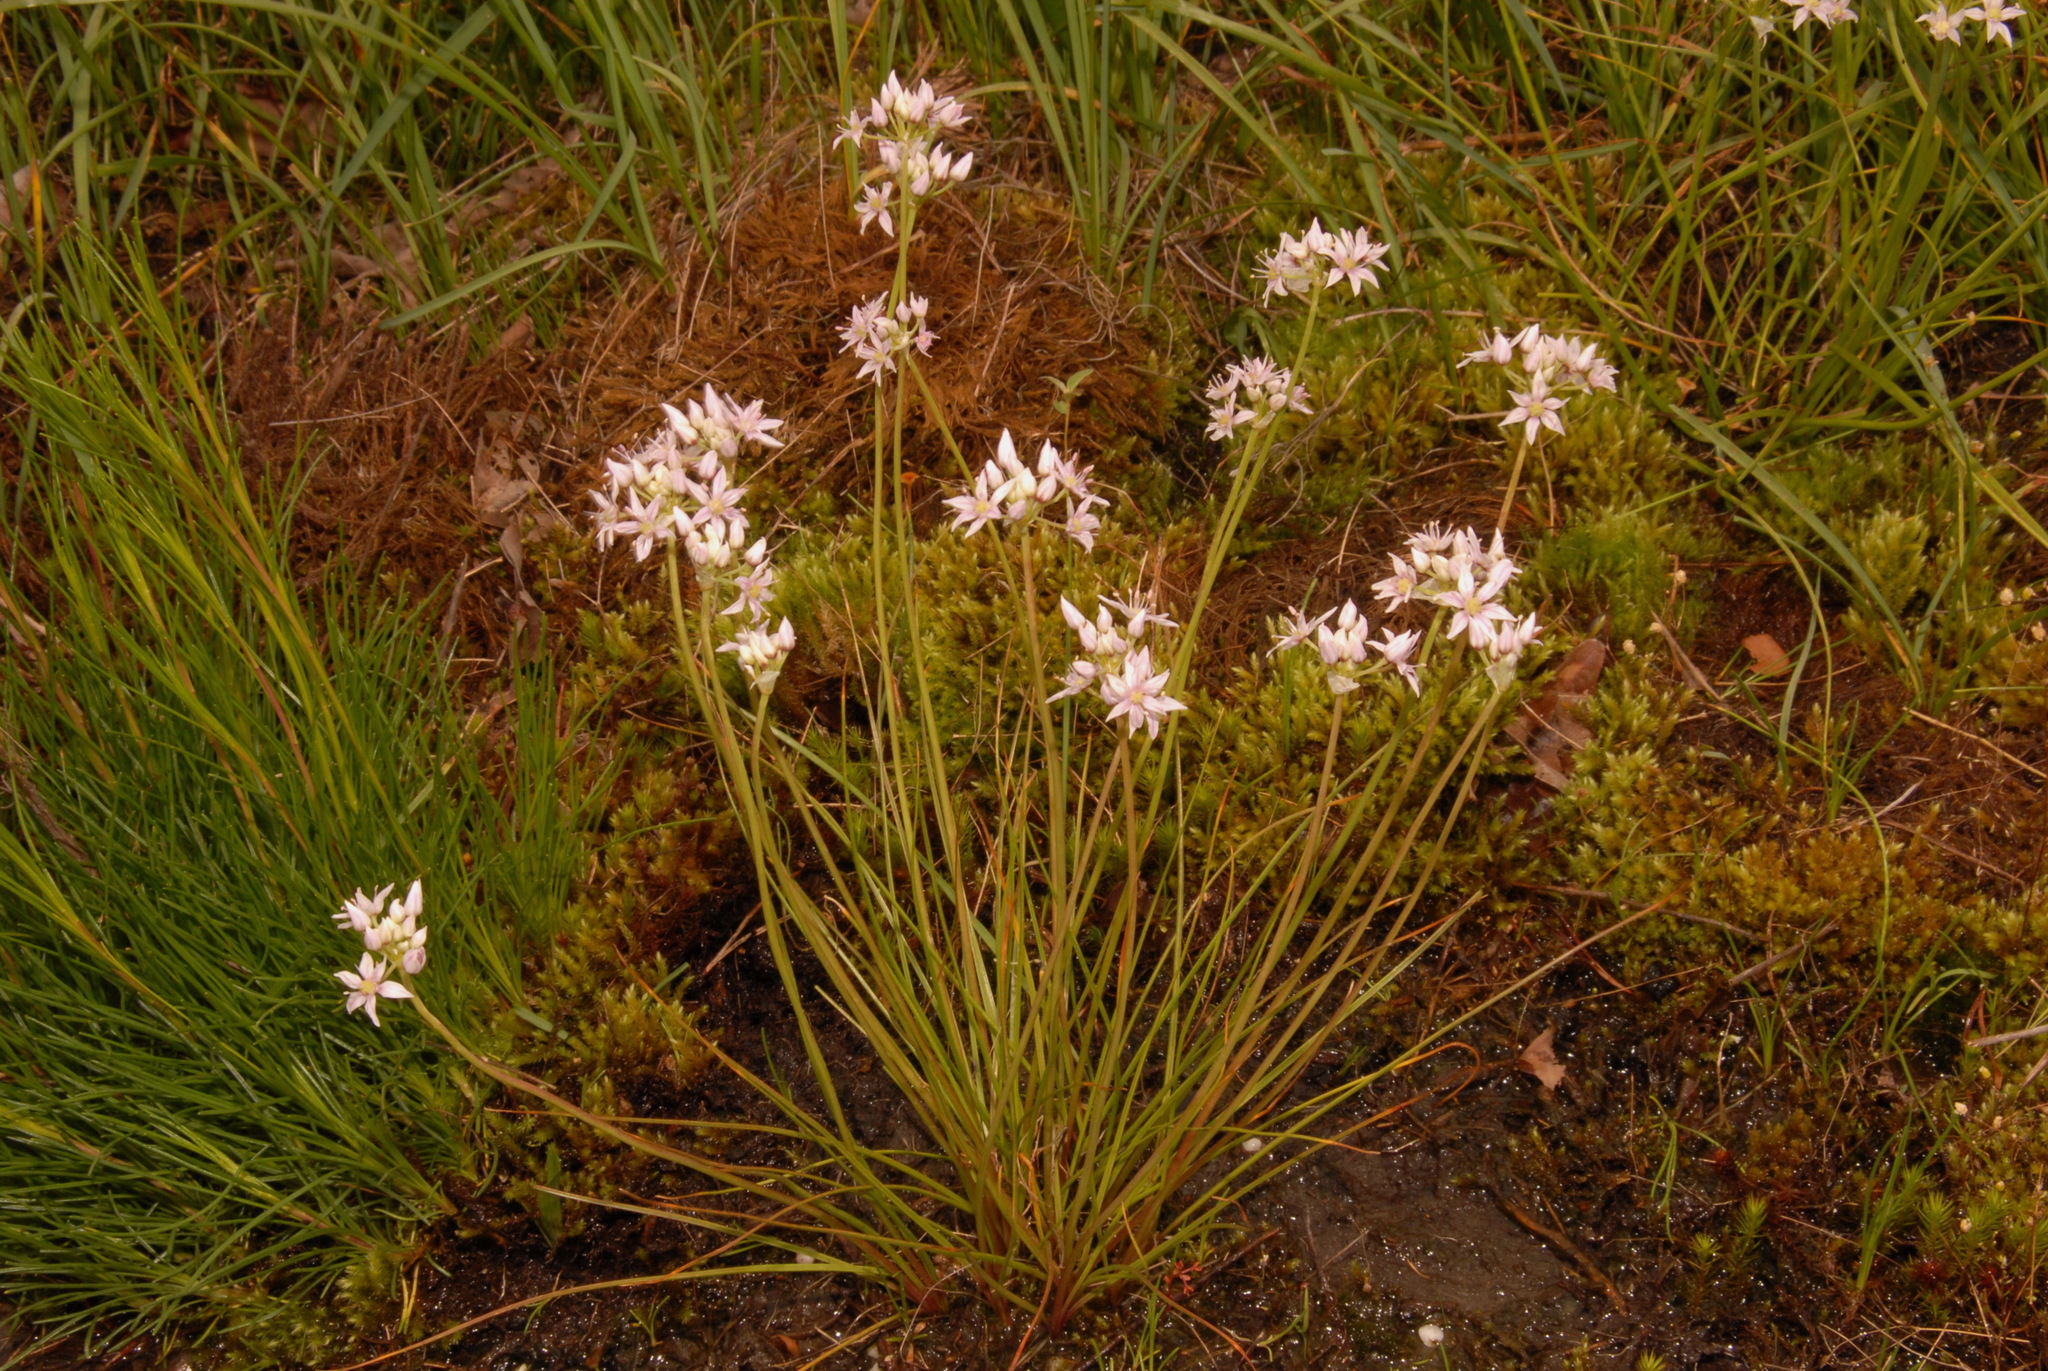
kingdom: Plantae
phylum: Tracheophyta
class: Liliopsida
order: Asparagales
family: Amaryllidaceae
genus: Allium
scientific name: Allium speculae
